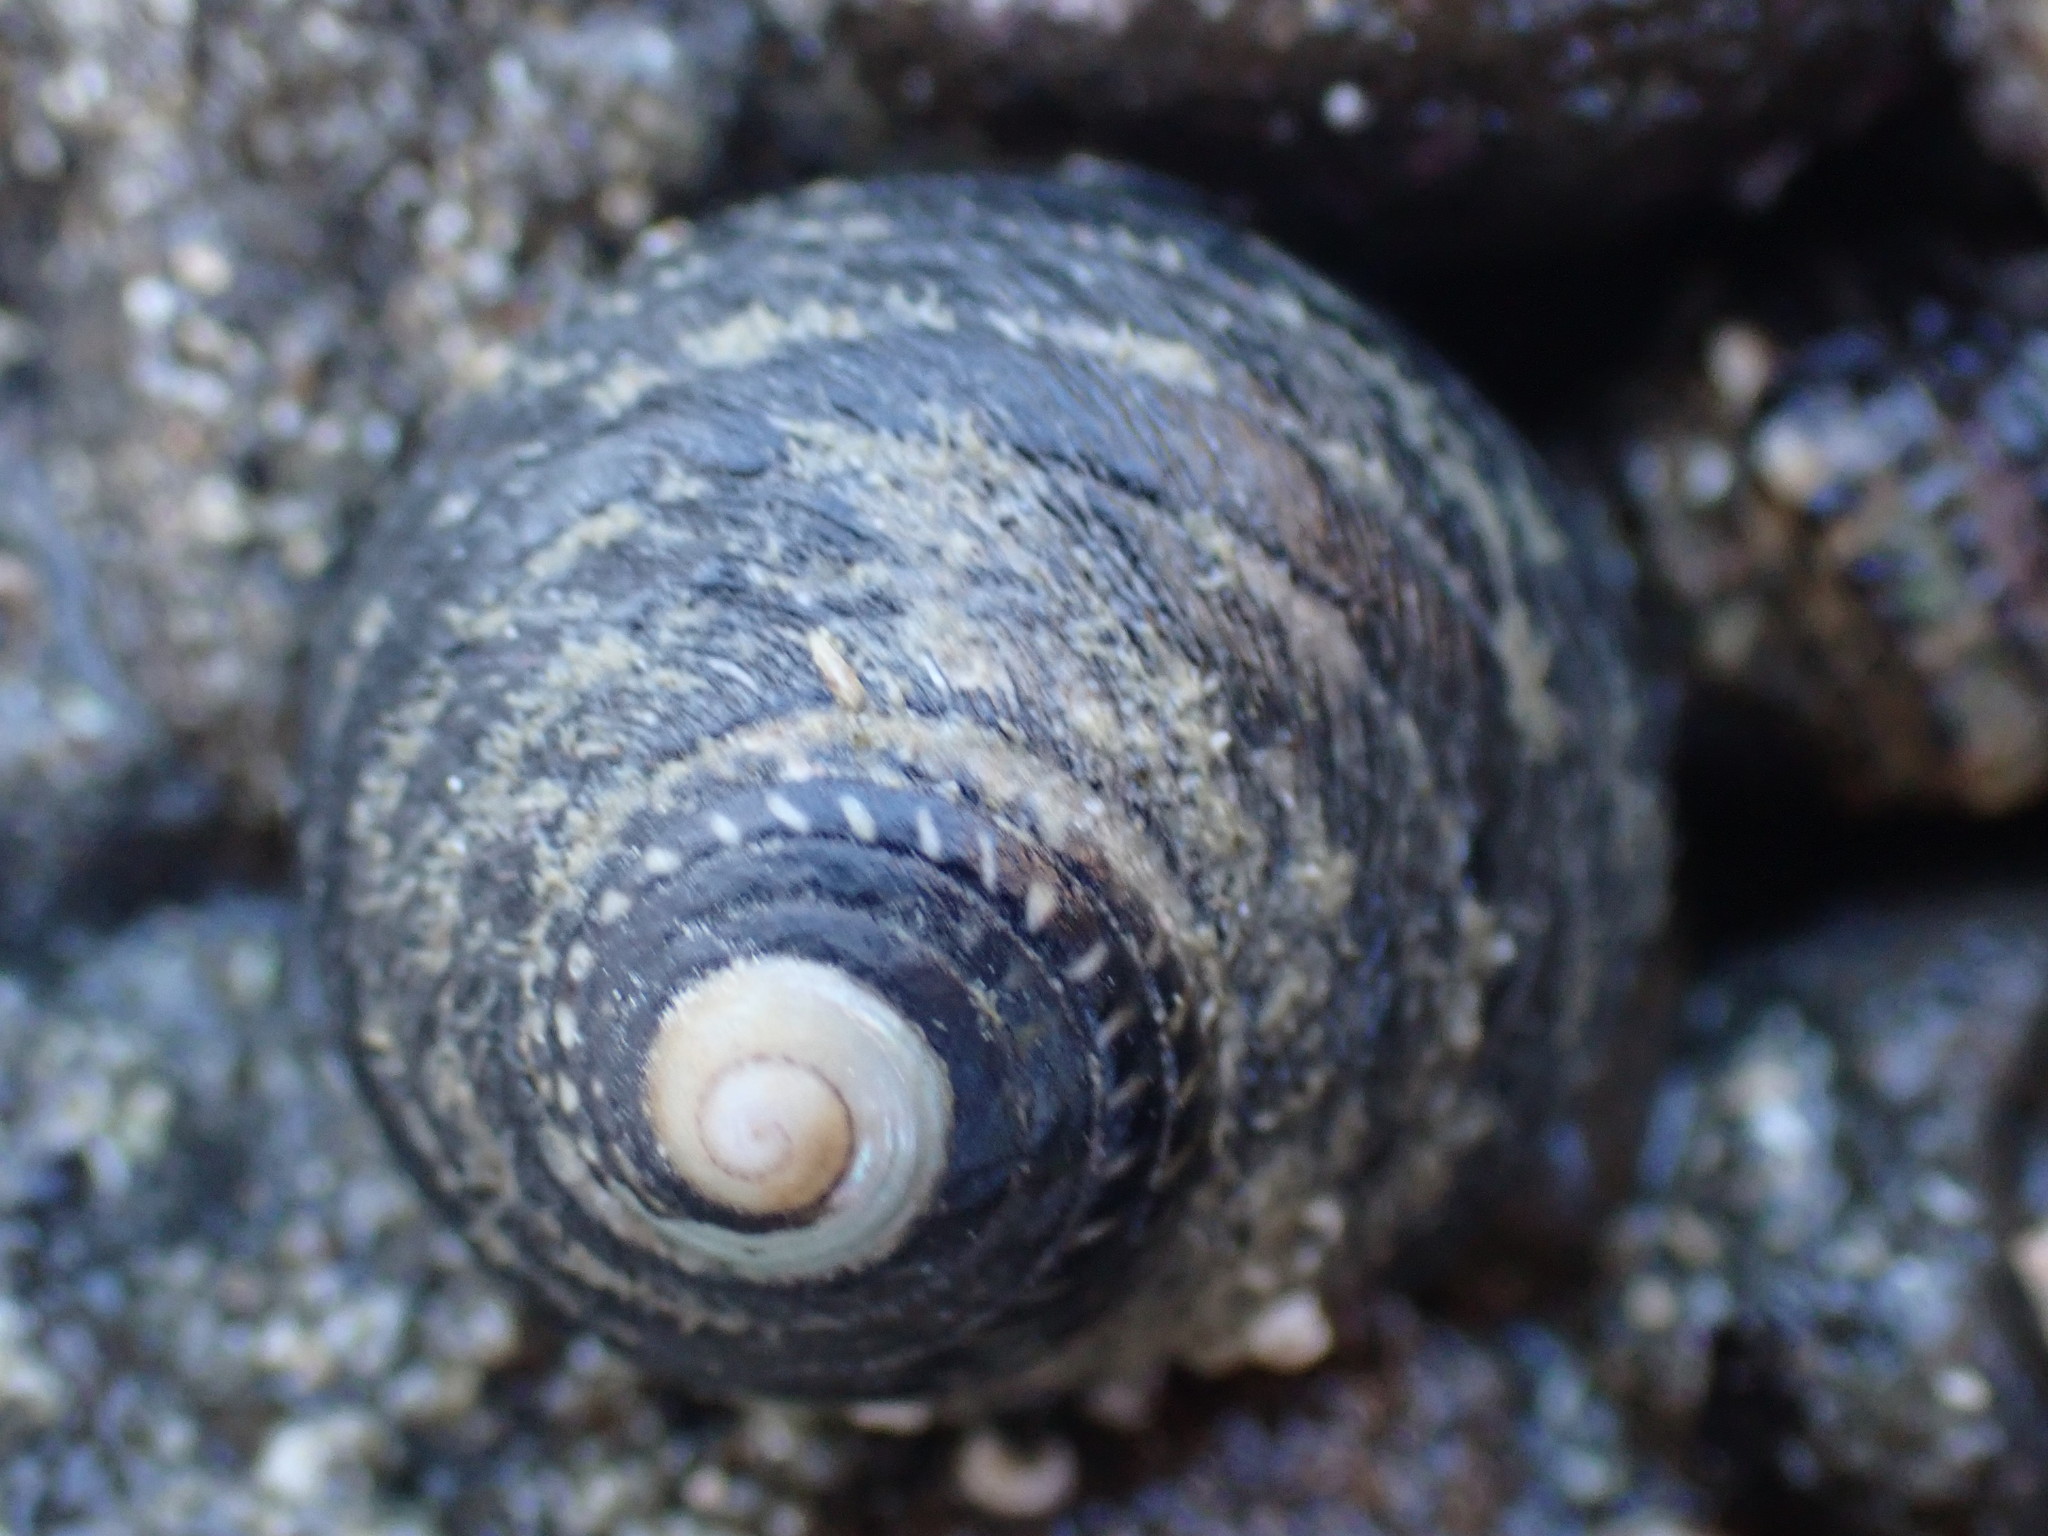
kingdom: Animalia
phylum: Mollusca
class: Gastropoda
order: Trochida
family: Trochidae
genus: Diloma
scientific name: Diloma aethiops
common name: Scorched monodont
